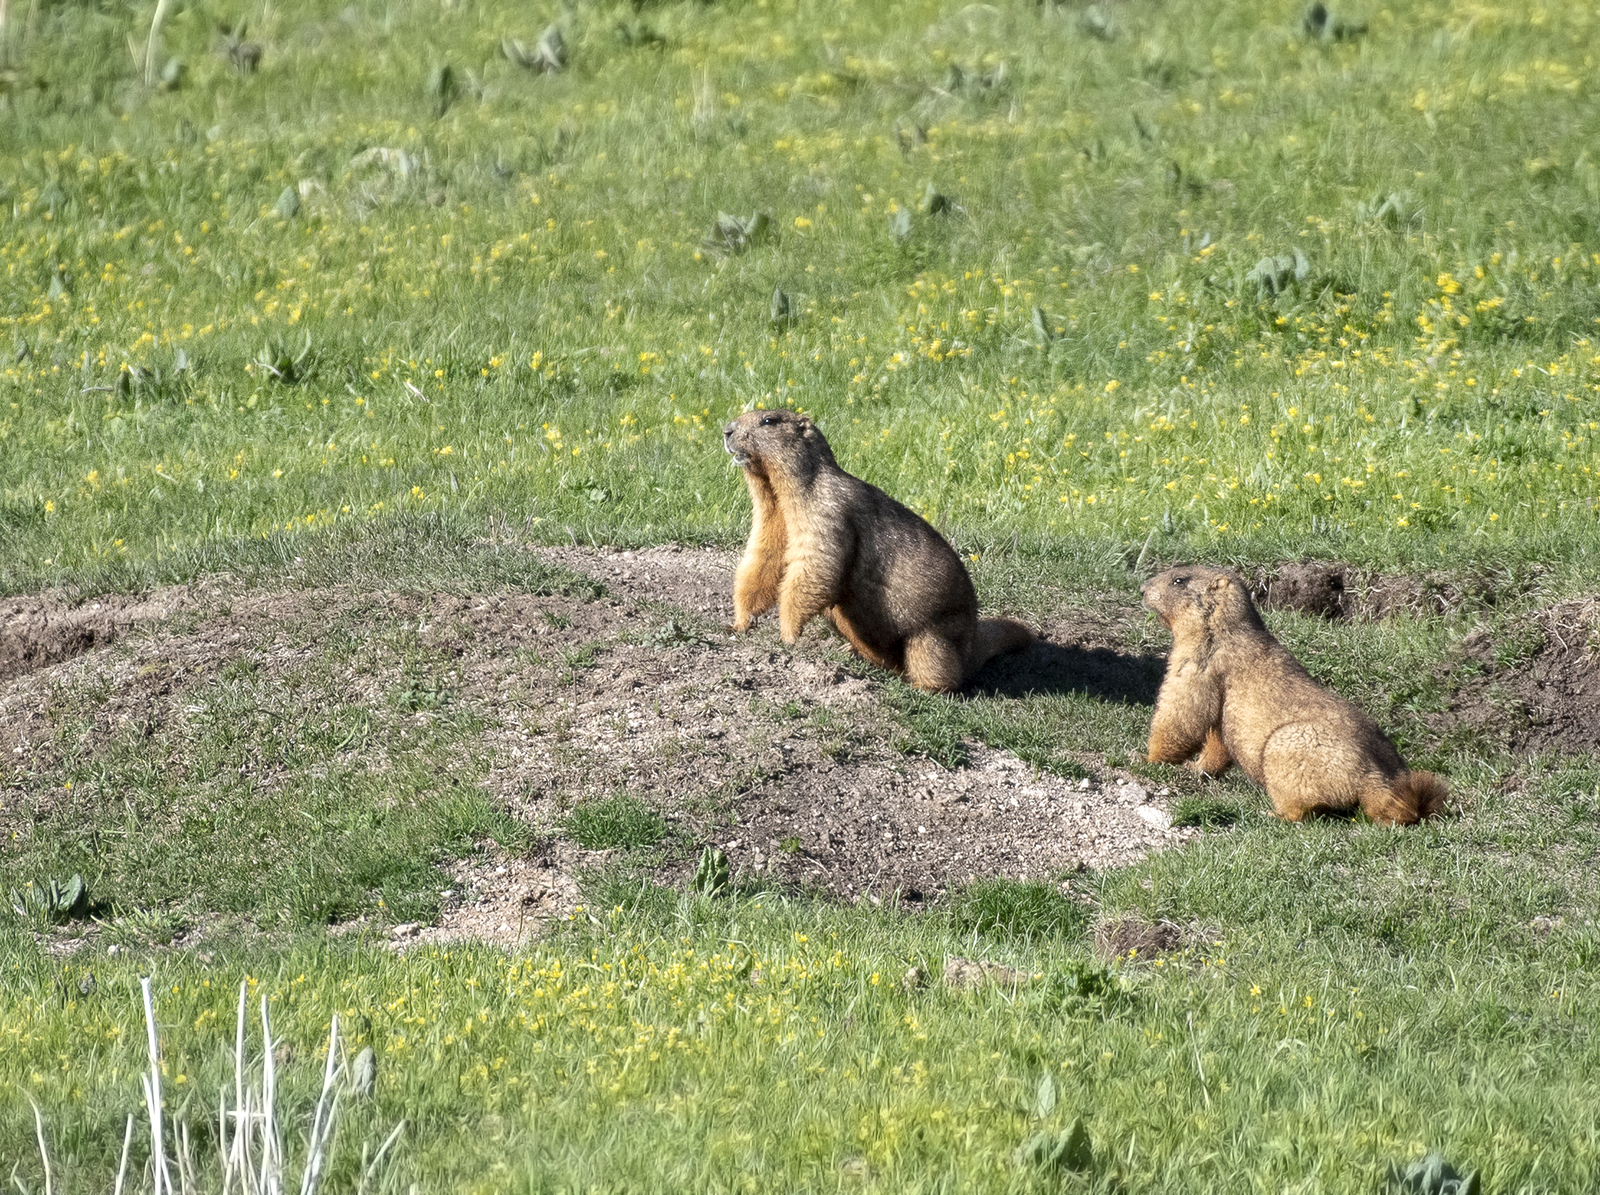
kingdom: Animalia
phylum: Chordata
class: Mammalia
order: Rodentia
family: Sciuridae
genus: Marmota
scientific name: Marmota baibacina
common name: Gray marmot
